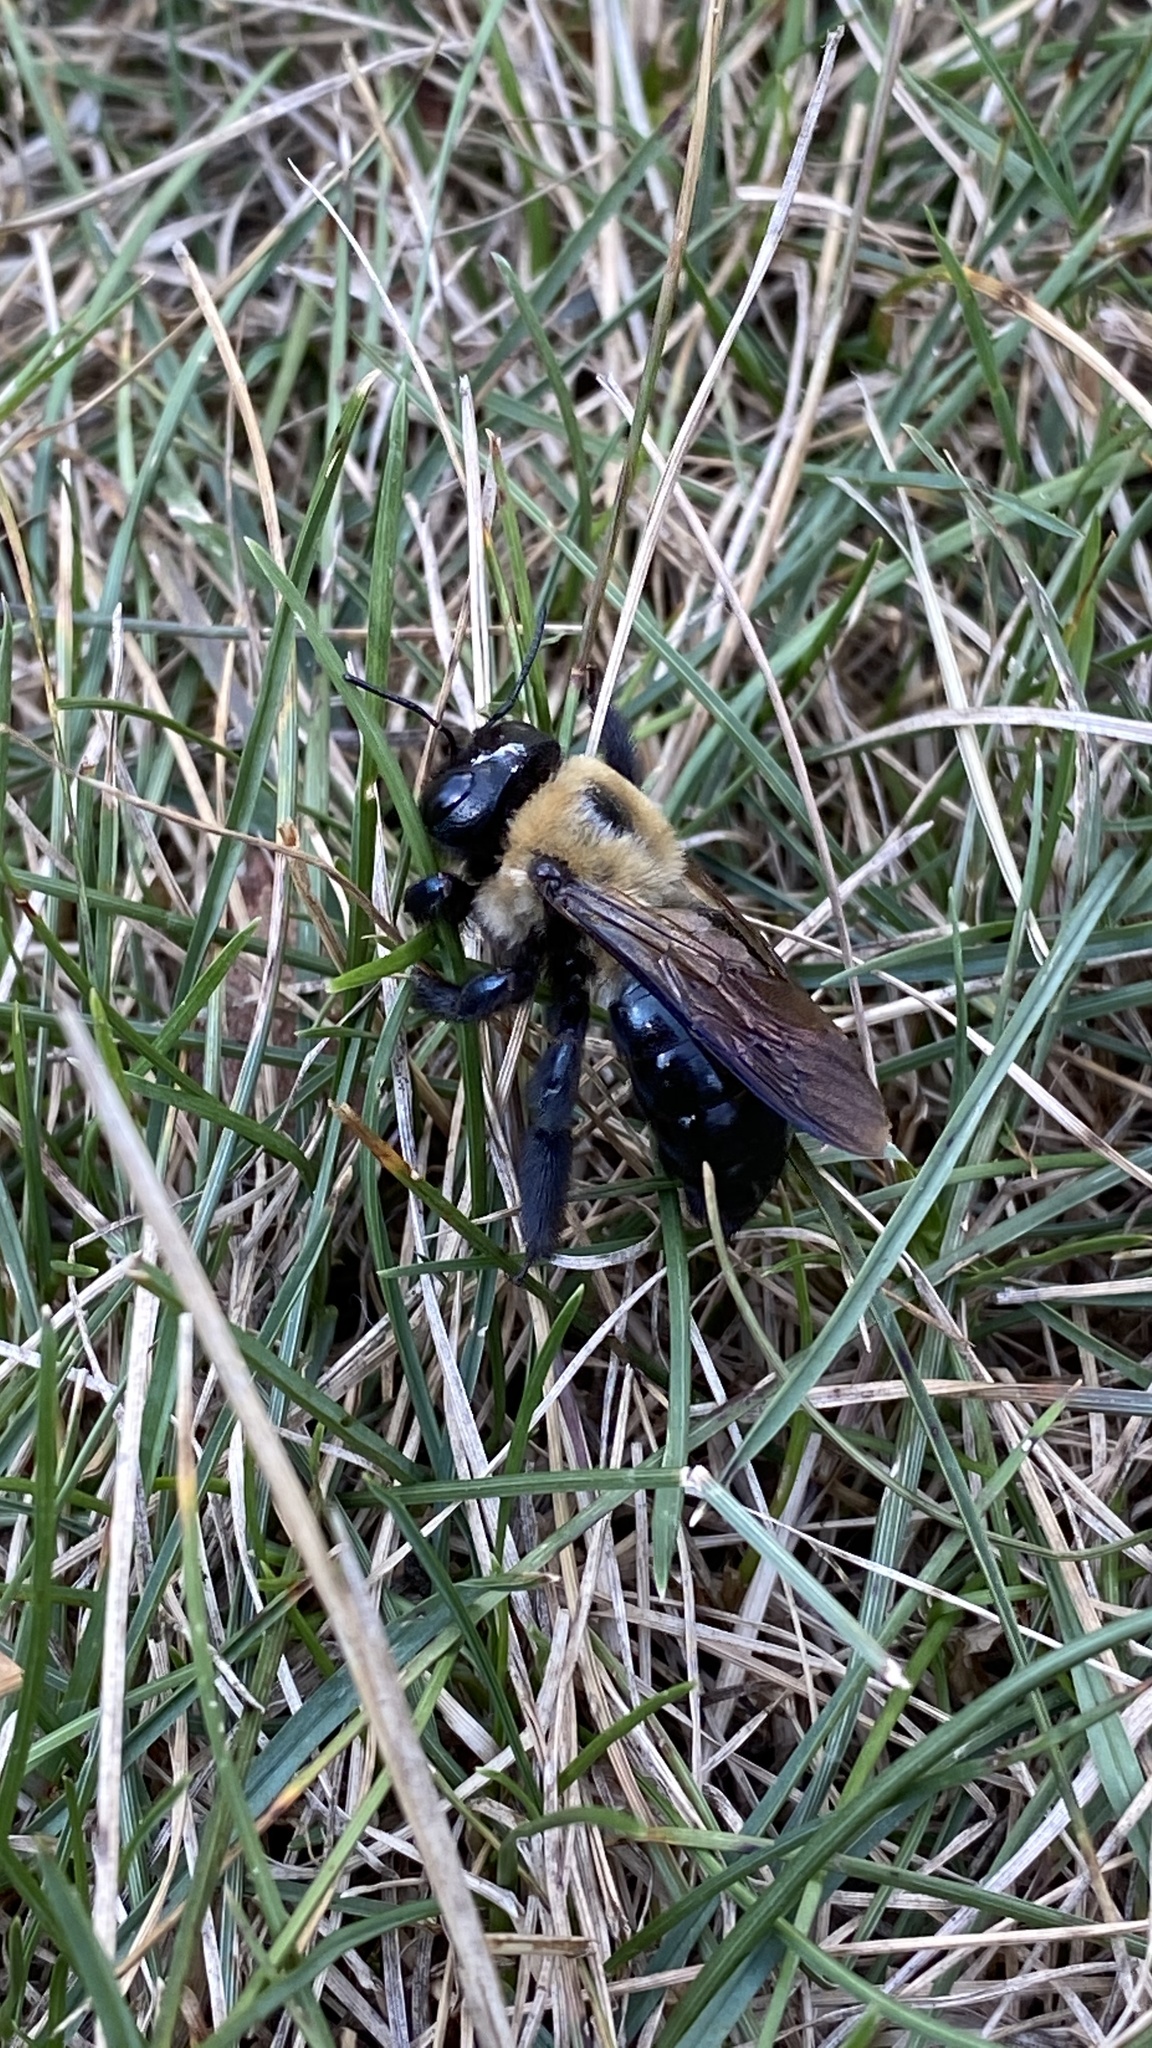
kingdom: Animalia
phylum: Arthropoda
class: Insecta
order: Hymenoptera
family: Apidae
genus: Xylocopa
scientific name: Xylocopa virginica
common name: Carpenter bee
